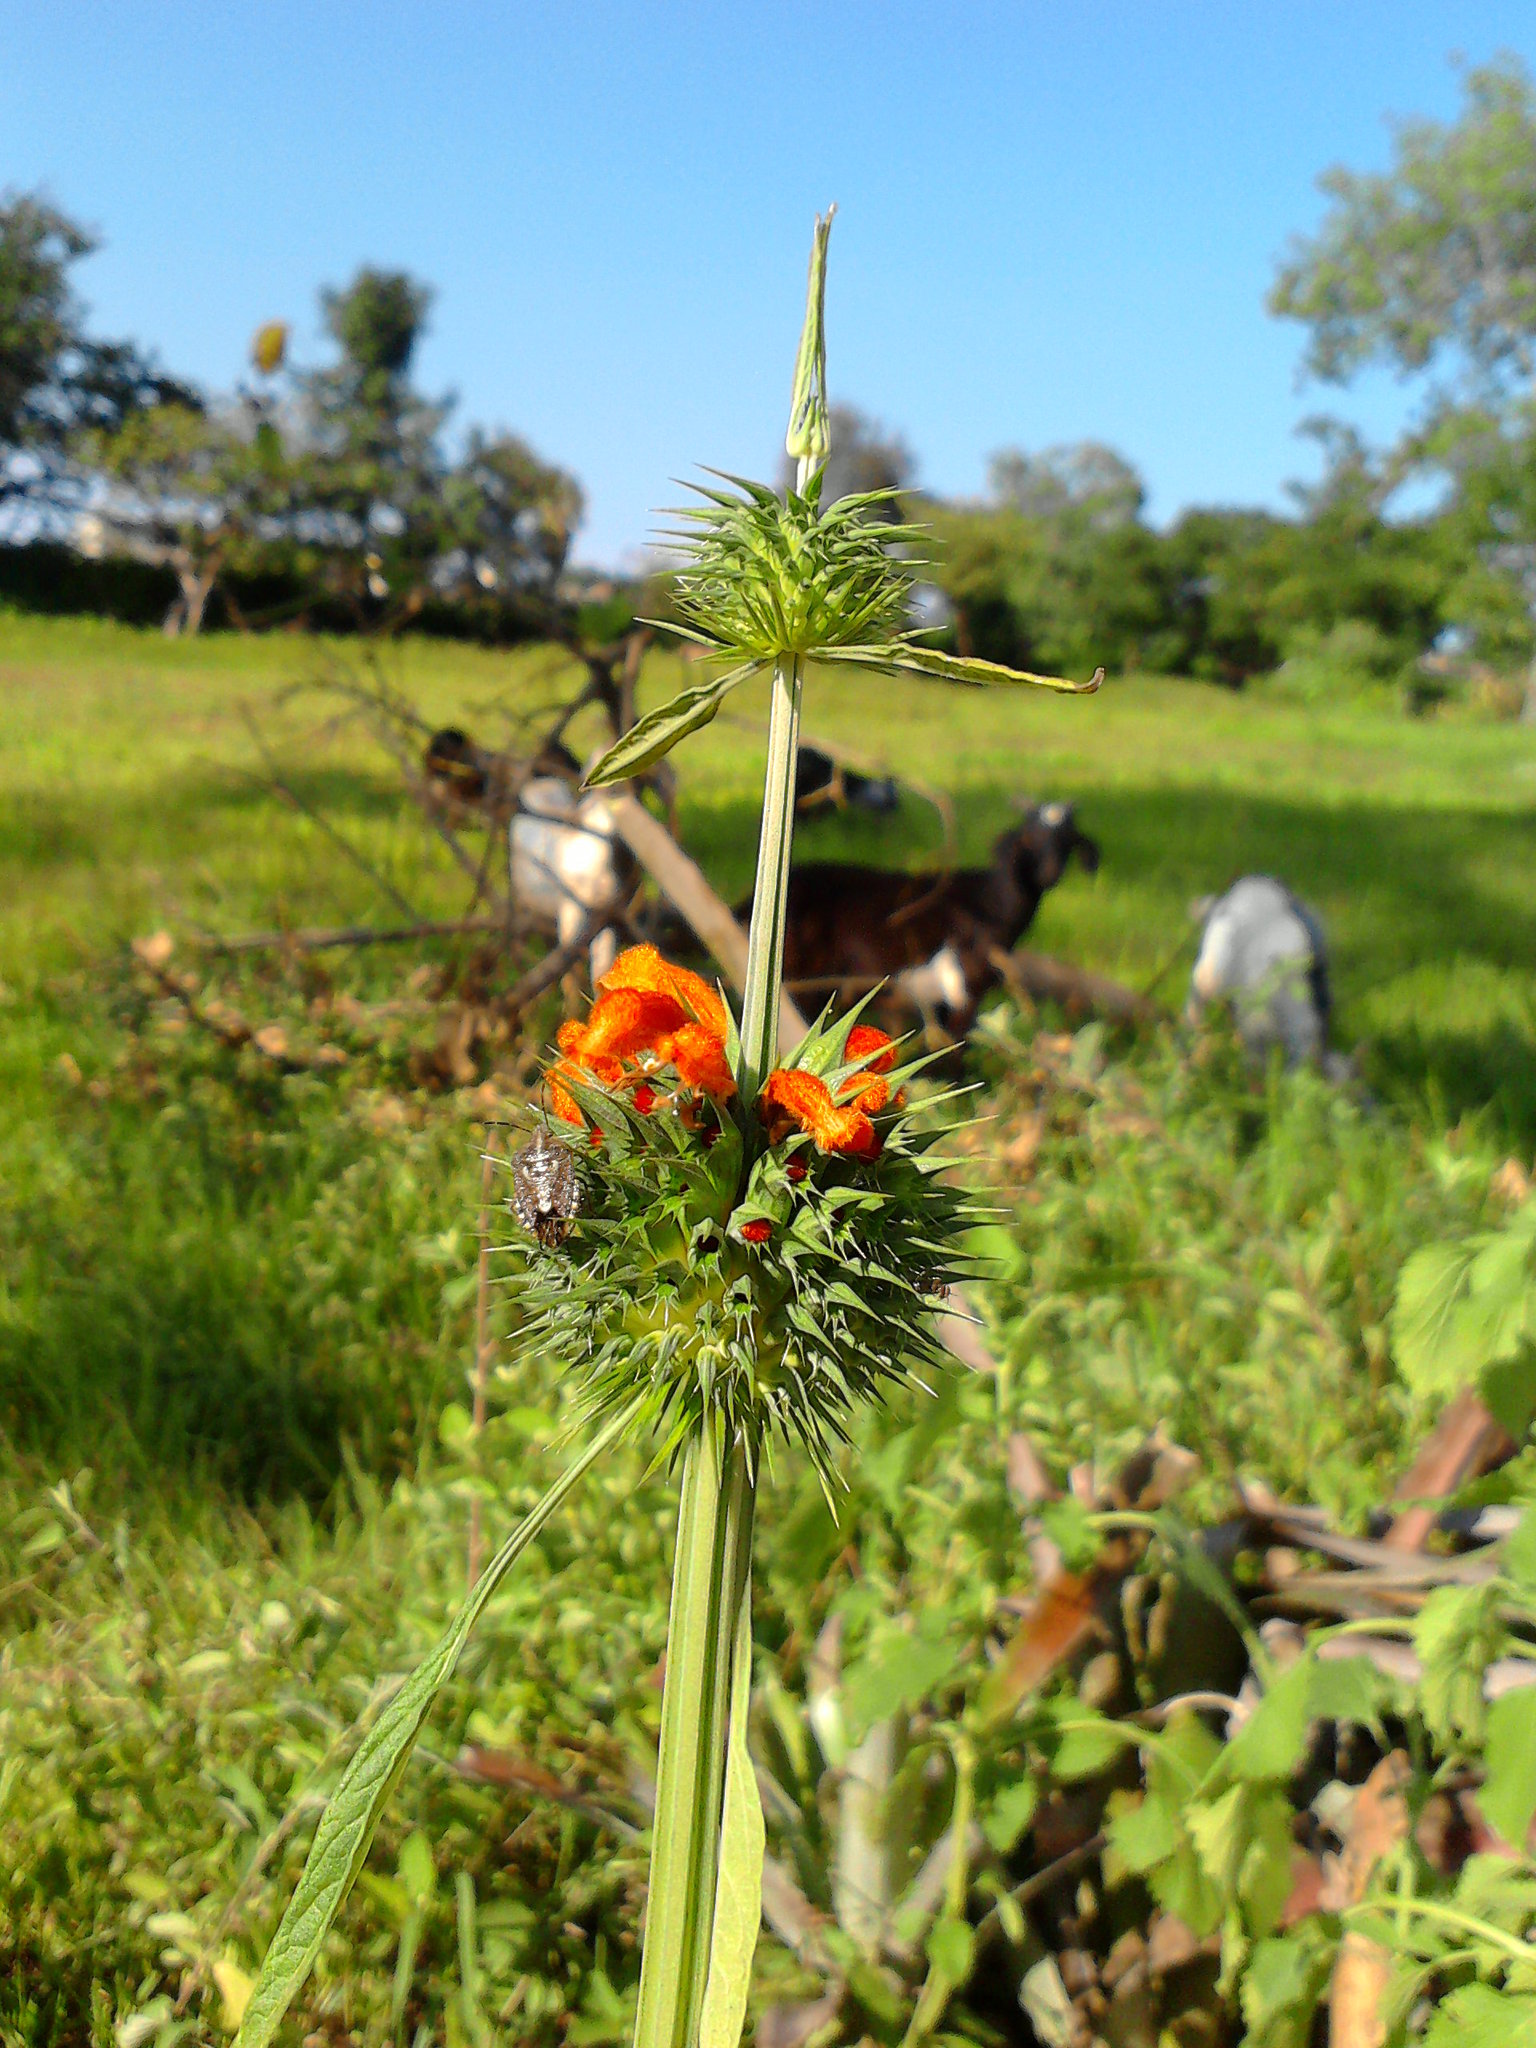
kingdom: Plantae
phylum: Tracheophyta
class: Magnoliopsida
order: Lamiales
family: Lamiaceae
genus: Leonotis
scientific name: Leonotis nepetifolia
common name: Christmas candlestick
